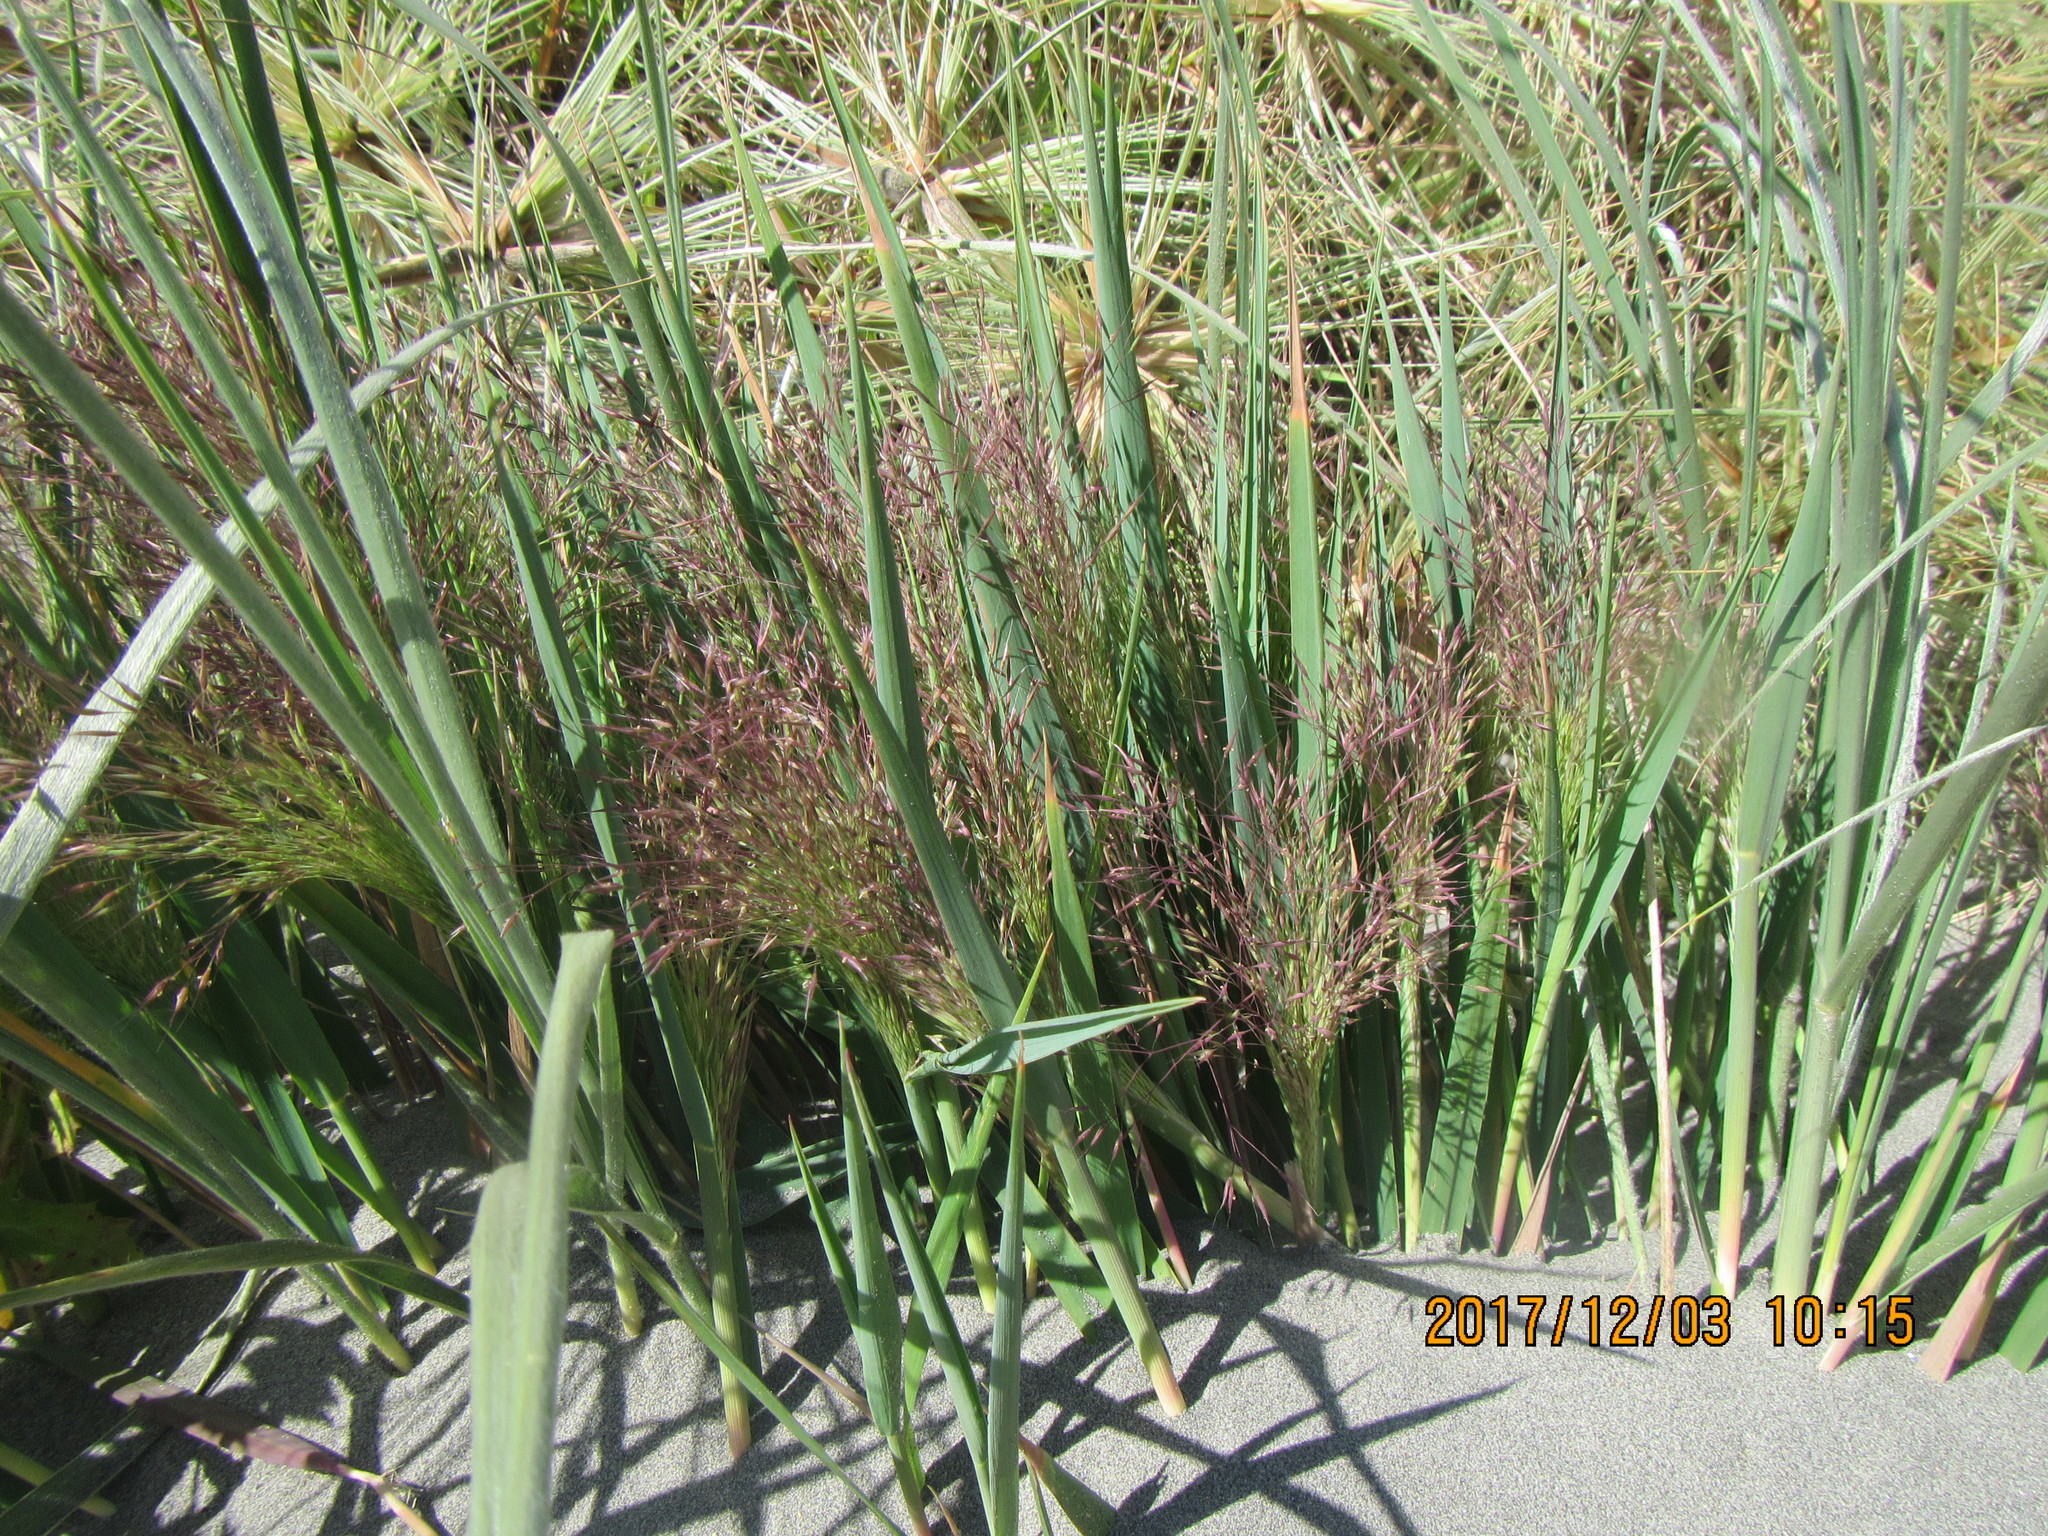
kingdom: Plantae
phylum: Tracheophyta
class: Liliopsida
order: Poales
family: Poaceae
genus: Lachnagrostis
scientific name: Lachnagrostis billardierei
